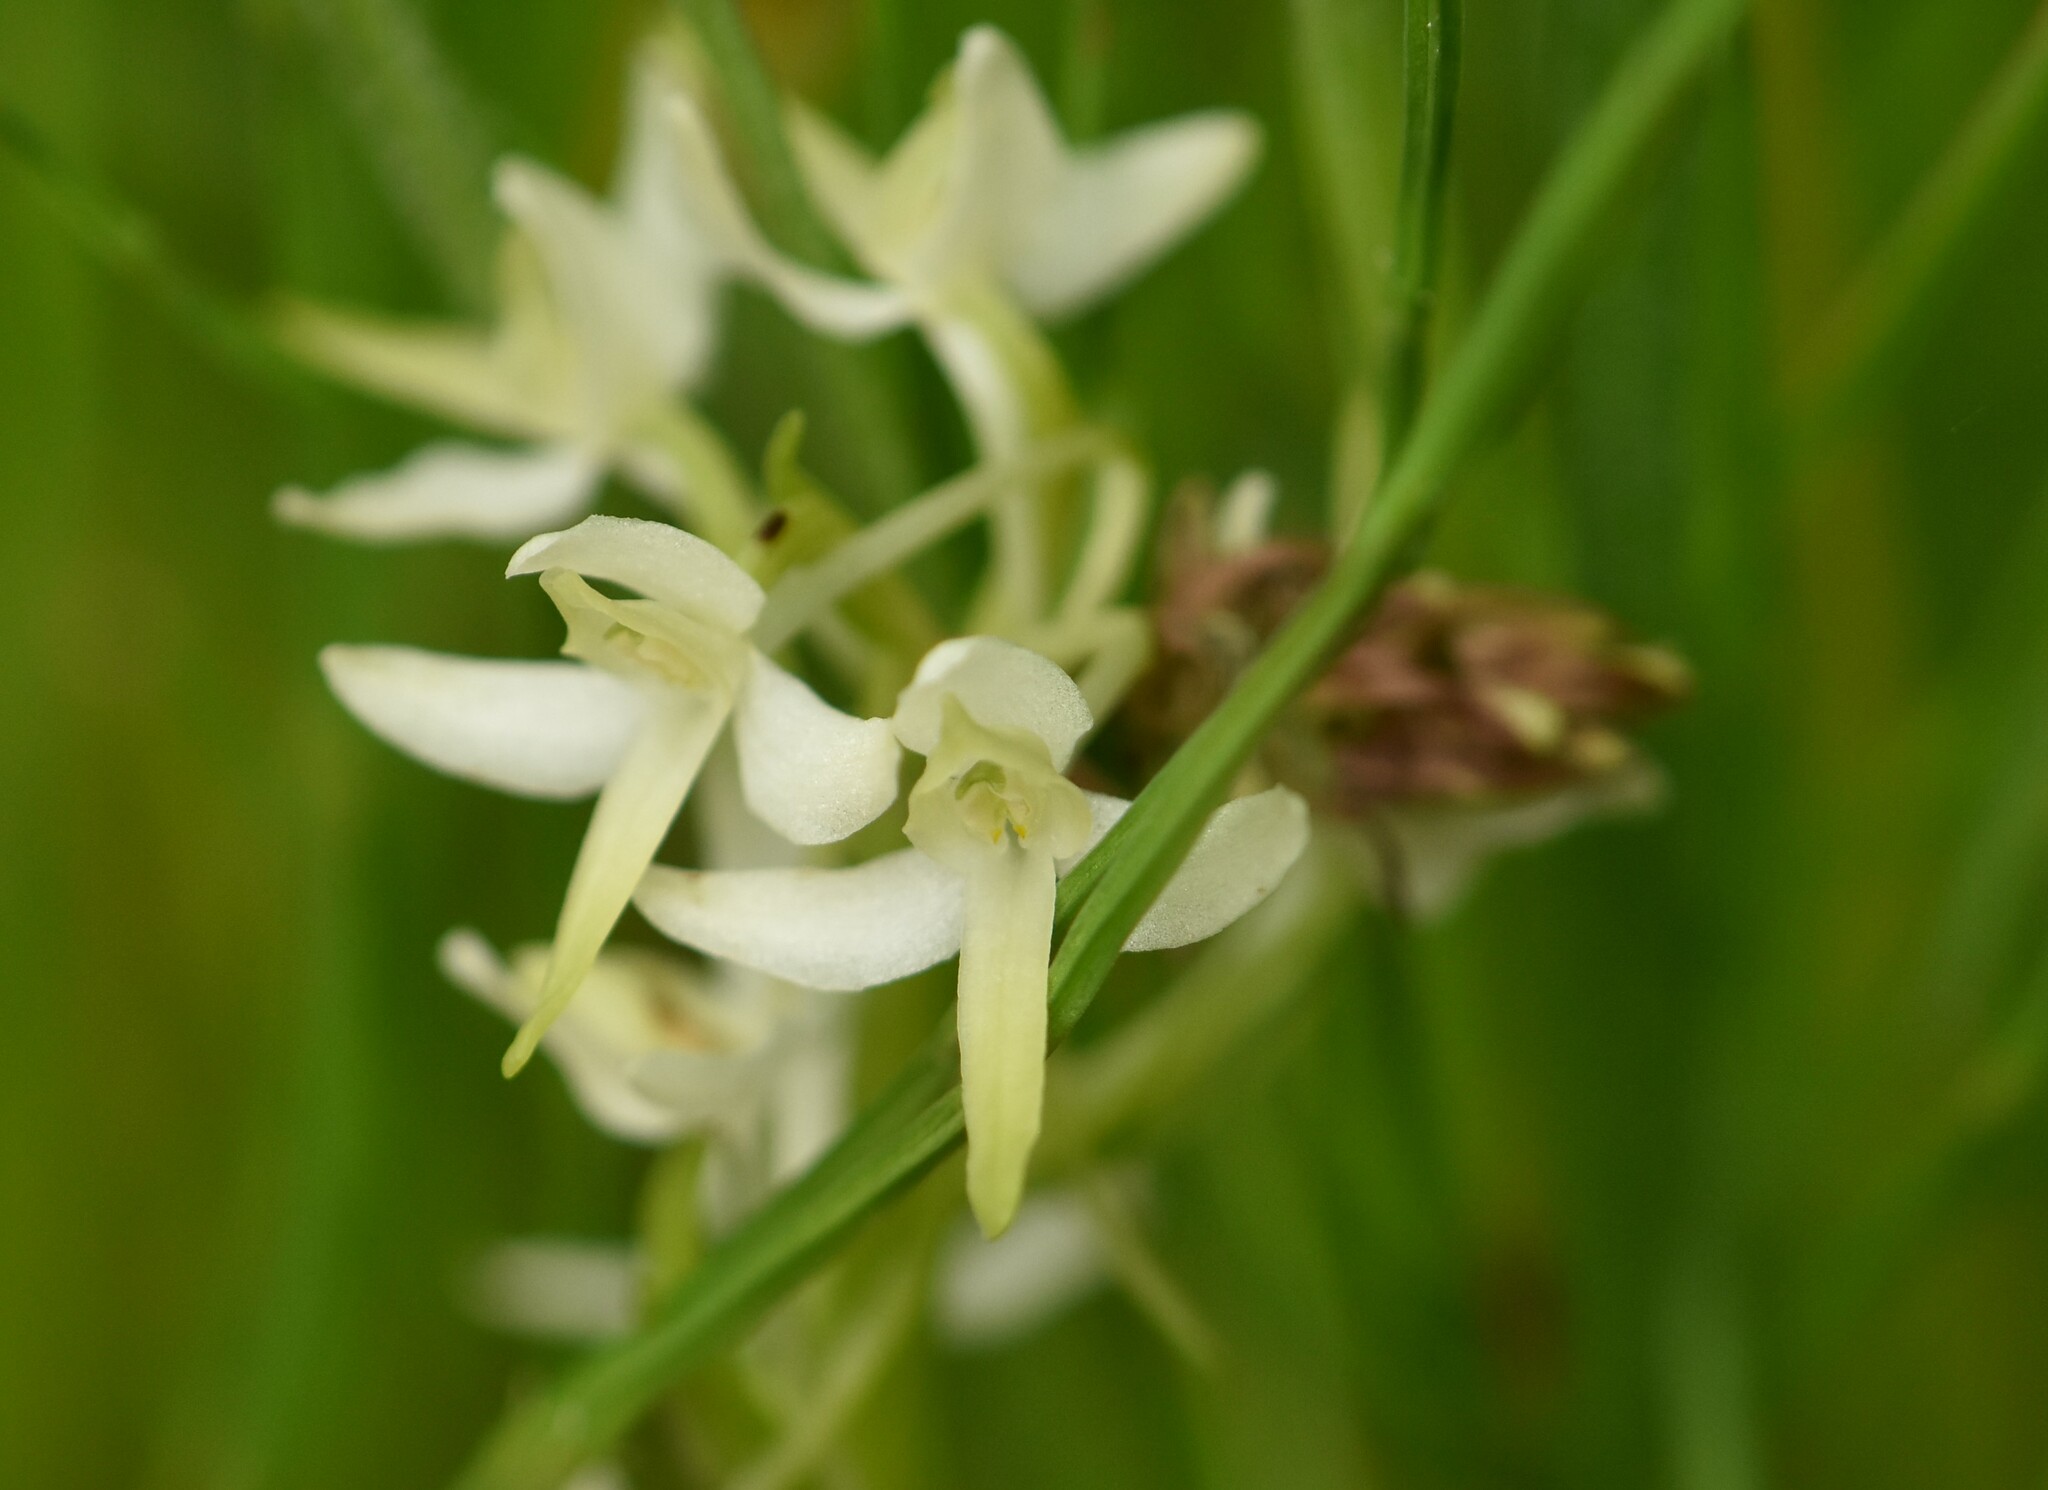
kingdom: Plantae
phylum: Tracheophyta
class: Liliopsida
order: Asparagales
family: Orchidaceae
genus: Platanthera
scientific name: Platanthera bifolia
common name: Lesser butterfly-orchid
